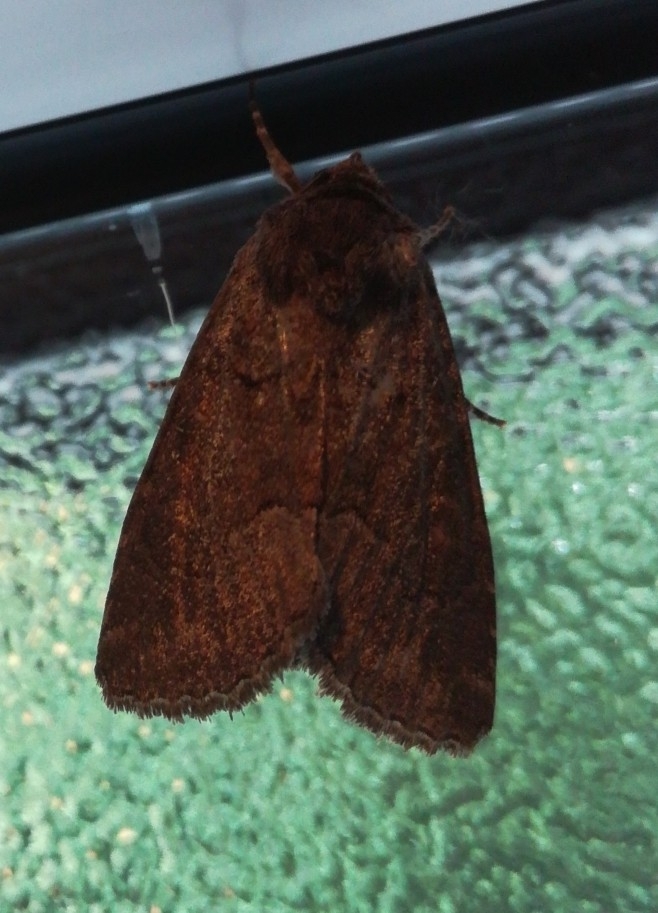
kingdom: Animalia
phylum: Arthropoda
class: Insecta
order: Lepidoptera
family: Noctuidae
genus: Thalpophila
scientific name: Thalpophila matura
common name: Straw underwing
